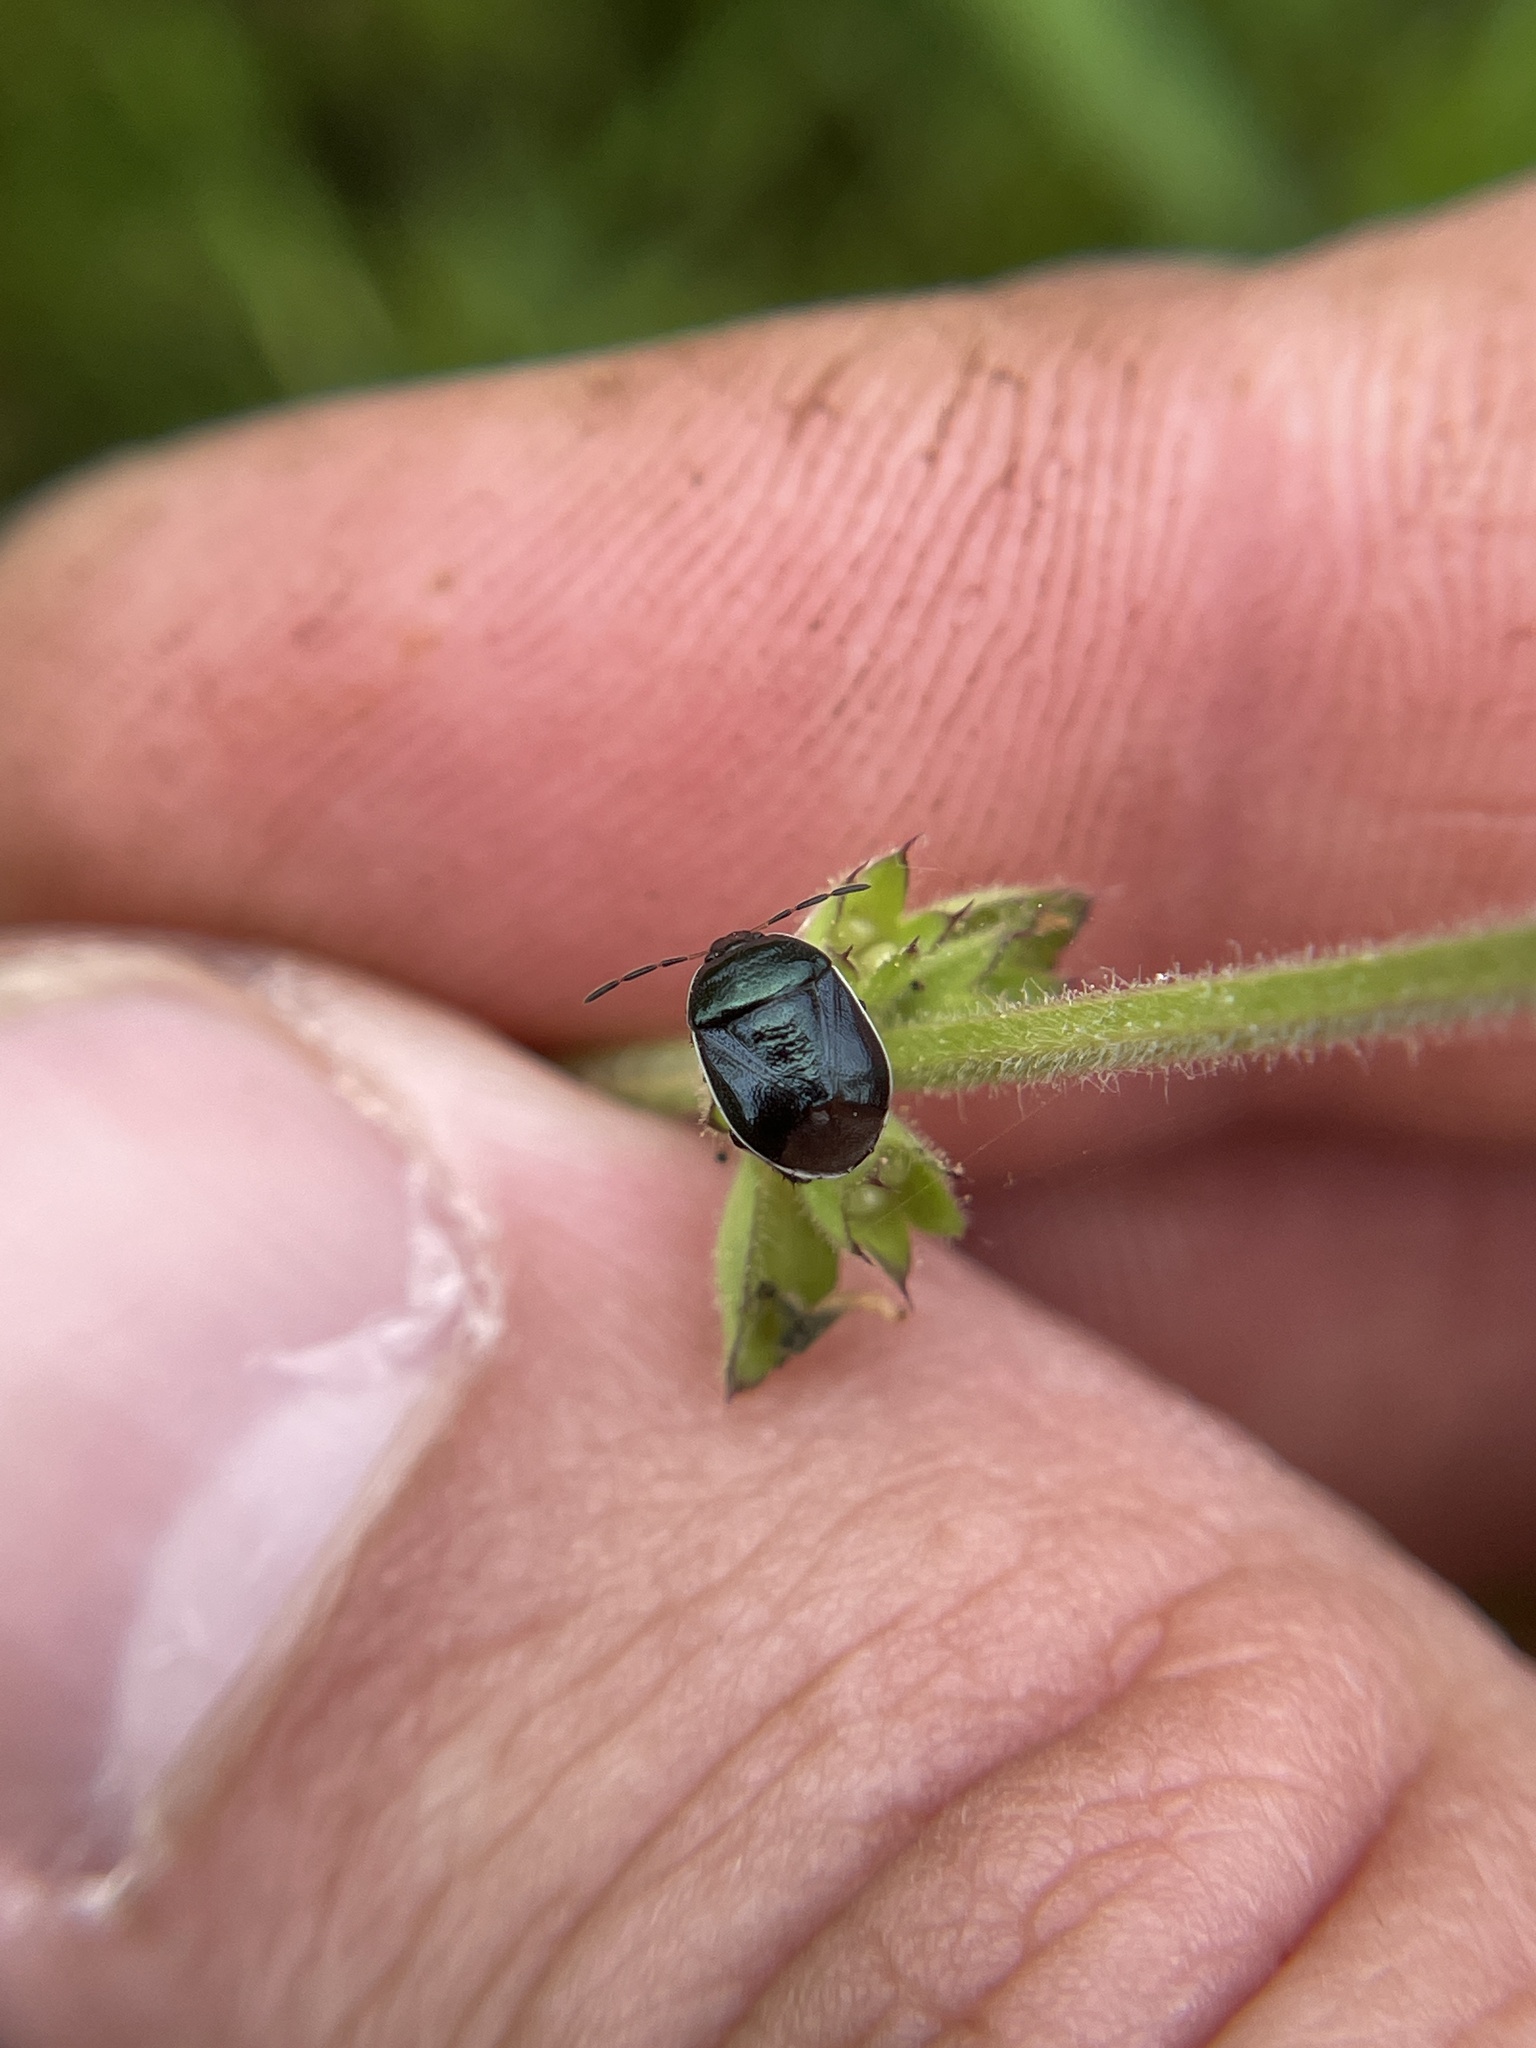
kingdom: Animalia
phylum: Arthropoda
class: Insecta
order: Hemiptera
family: Cydnidae
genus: Sehirus
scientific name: Sehirus cinctus
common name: White-margined burrower bug
